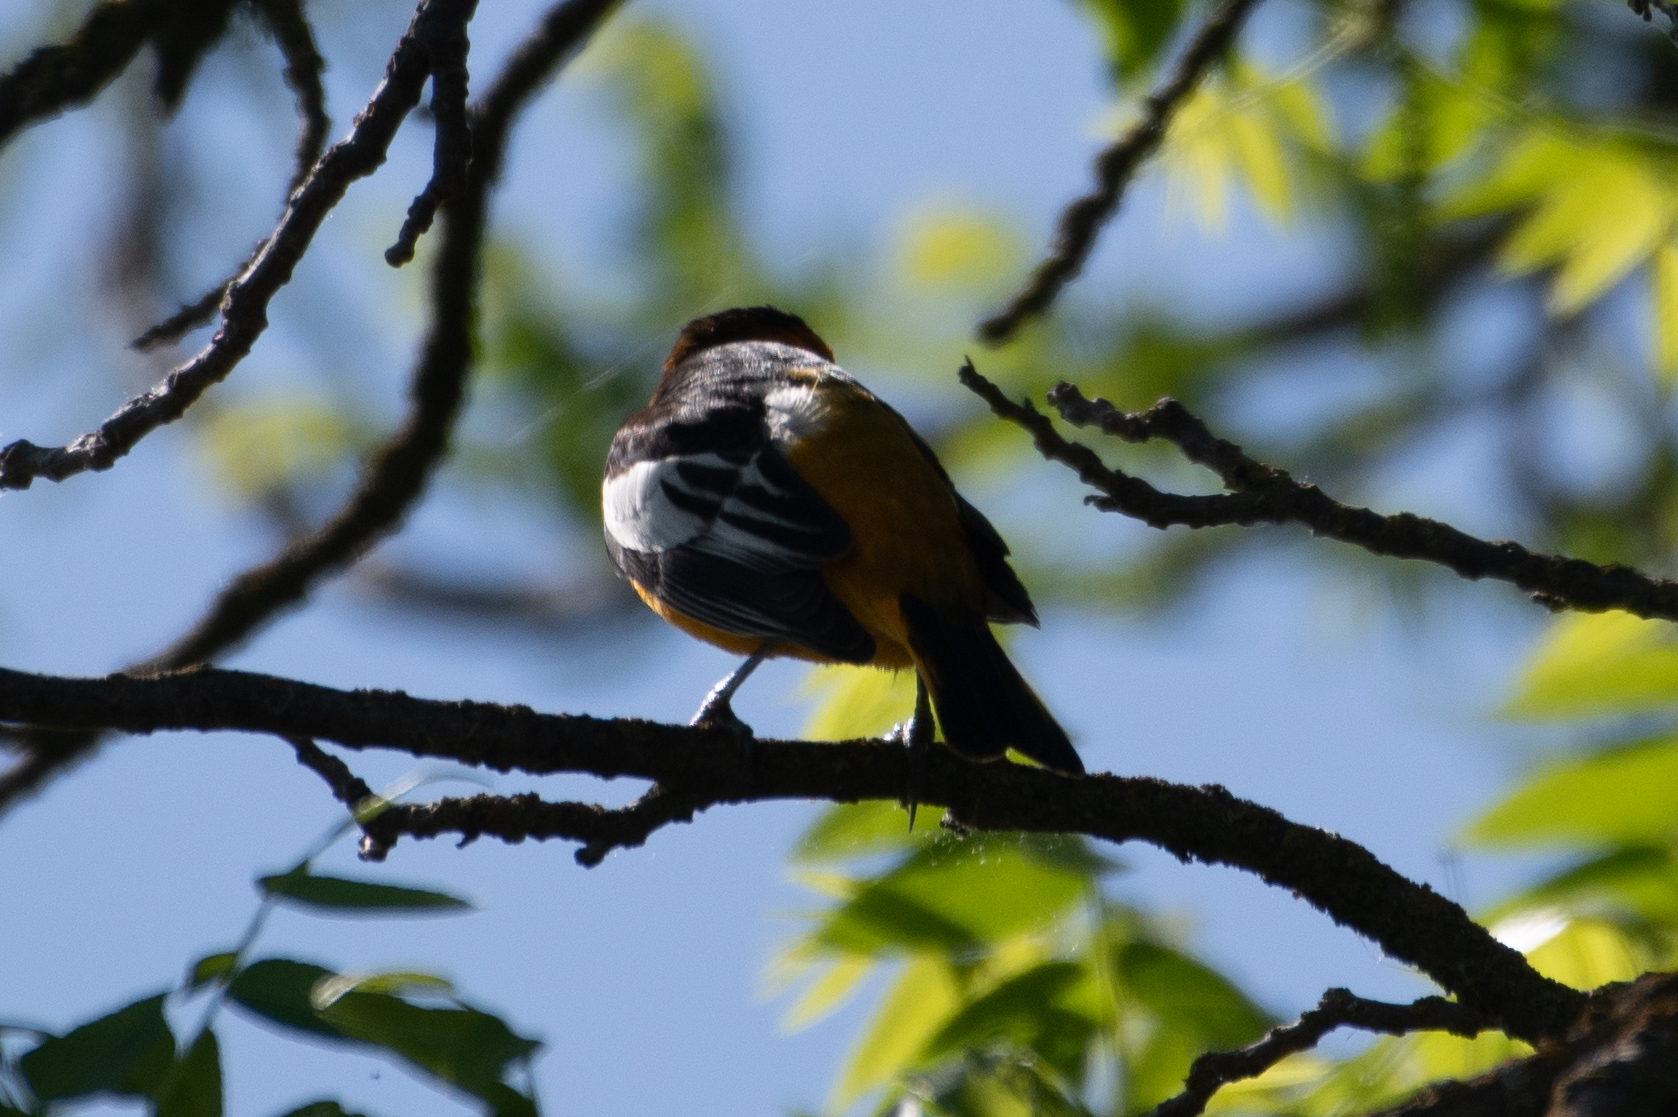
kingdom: Animalia
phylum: Chordata
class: Aves
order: Passeriformes
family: Icteridae
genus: Icterus
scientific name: Icterus bullockii
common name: Bullock's oriole
